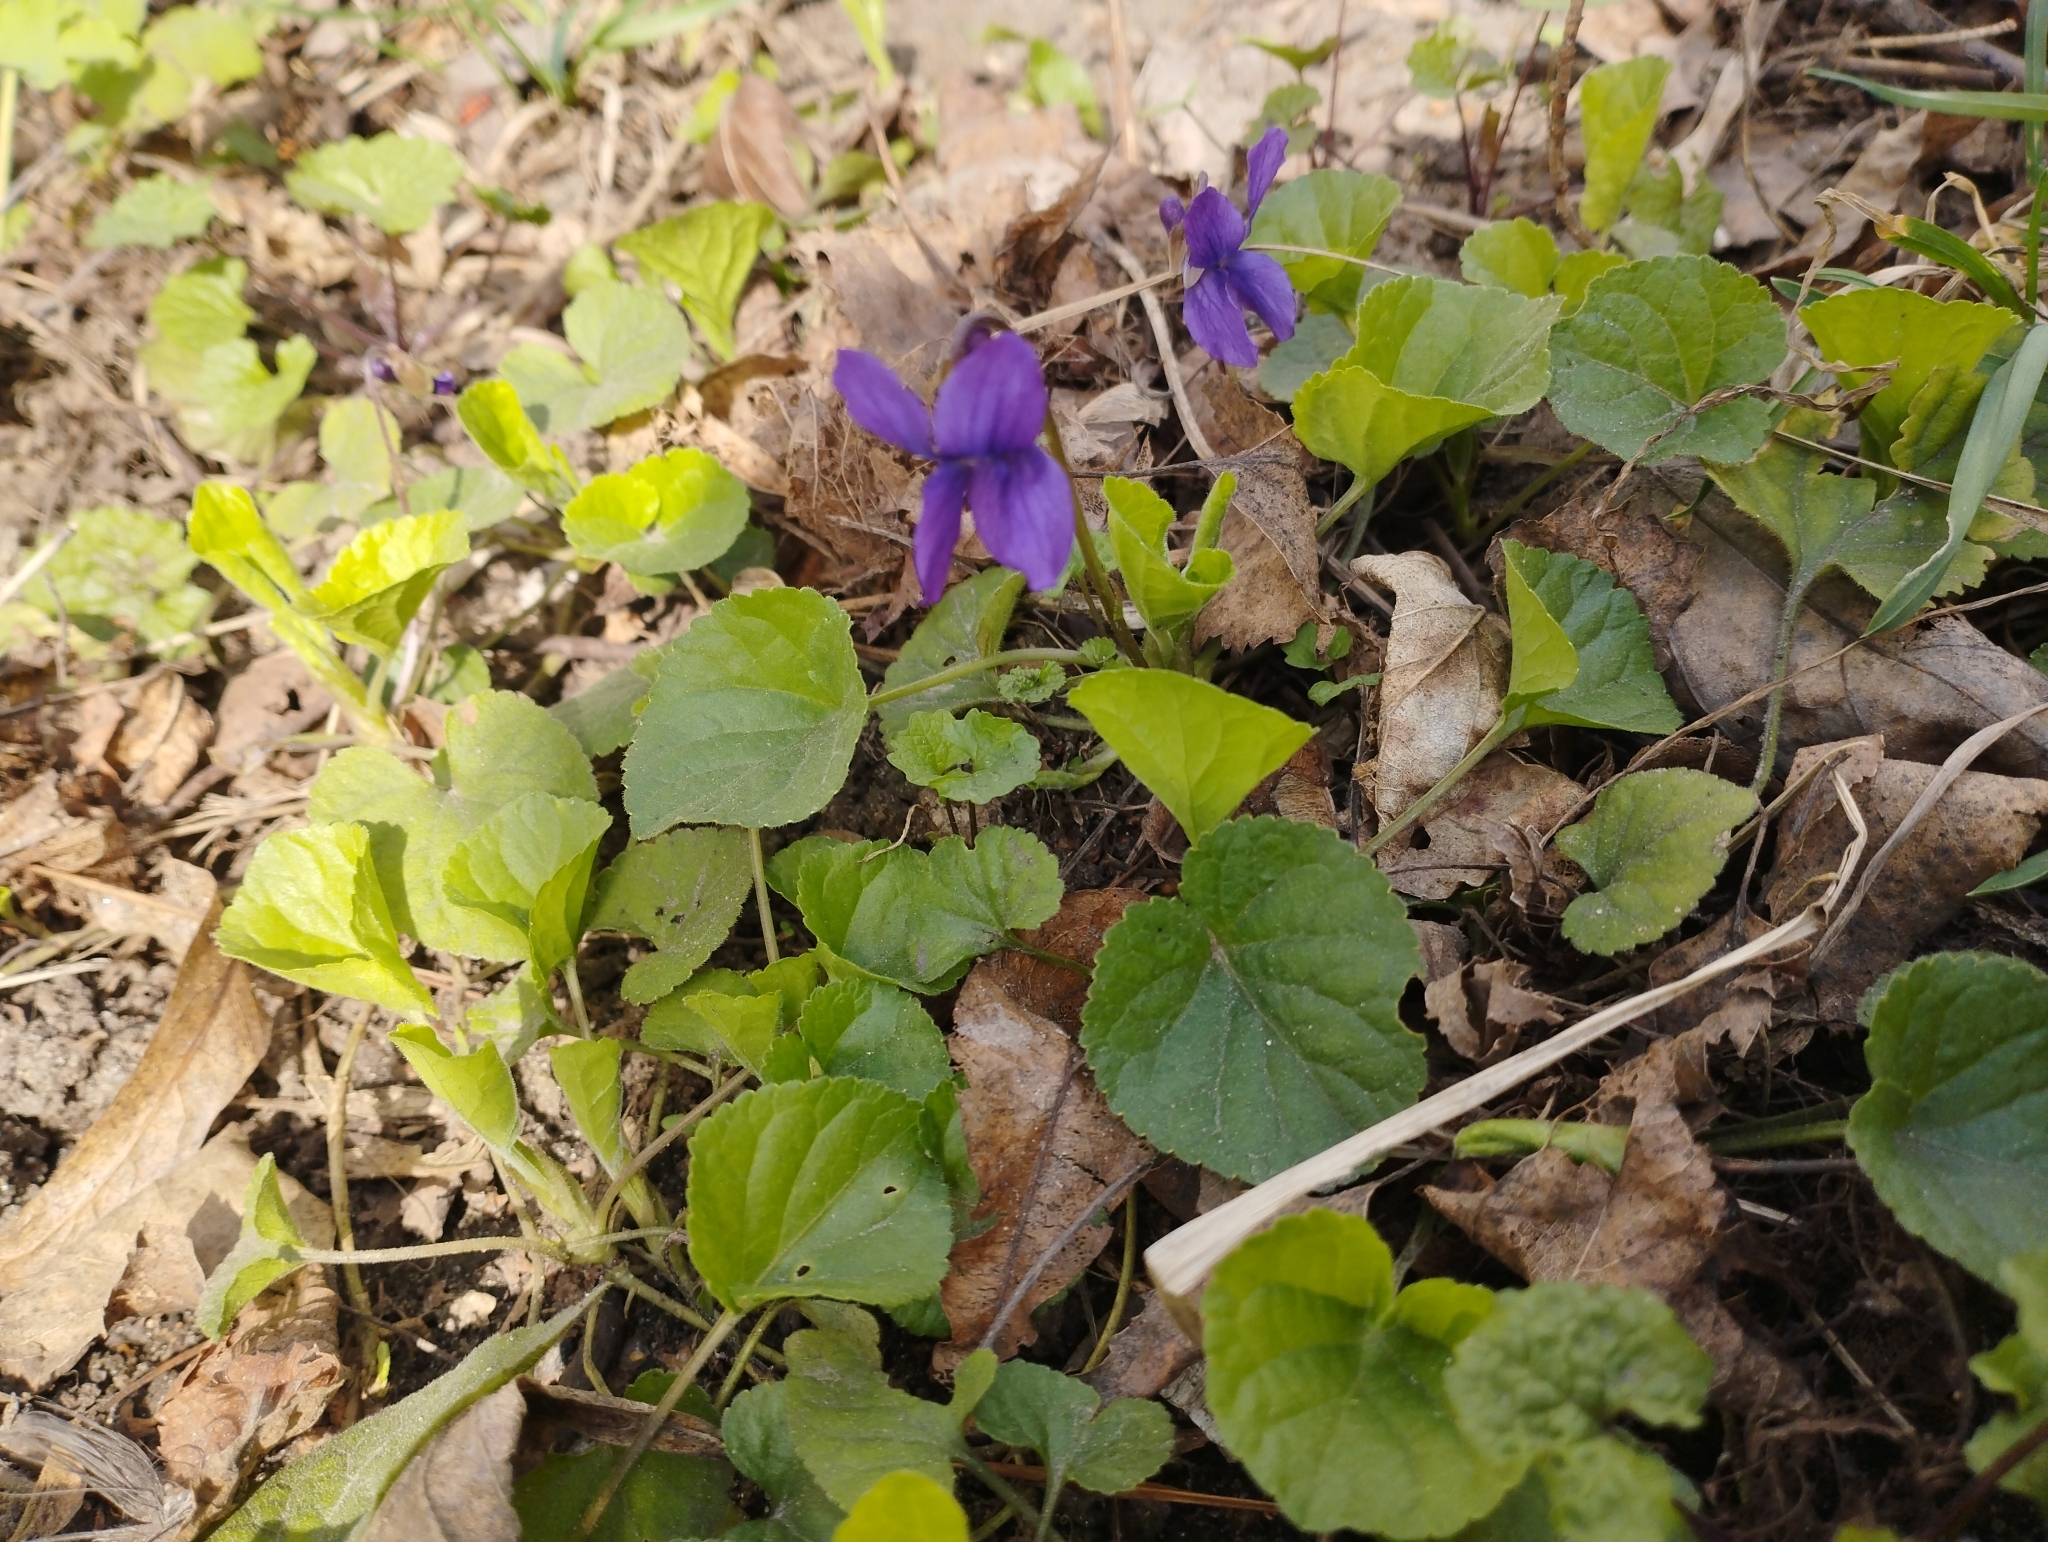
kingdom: Plantae
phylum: Tracheophyta
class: Magnoliopsida
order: Malpighiales
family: Violaceae
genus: Viola
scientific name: Viola odorata
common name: Sweet violet
